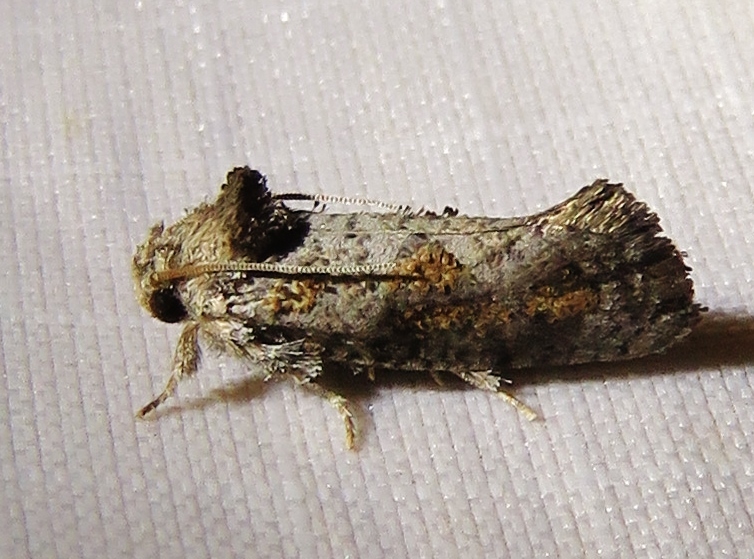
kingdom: Animalia
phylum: Arthropoda
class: Insecta
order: Lepidoptera
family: Tineidae
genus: Acrolophus
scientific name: Acrolophus piger
